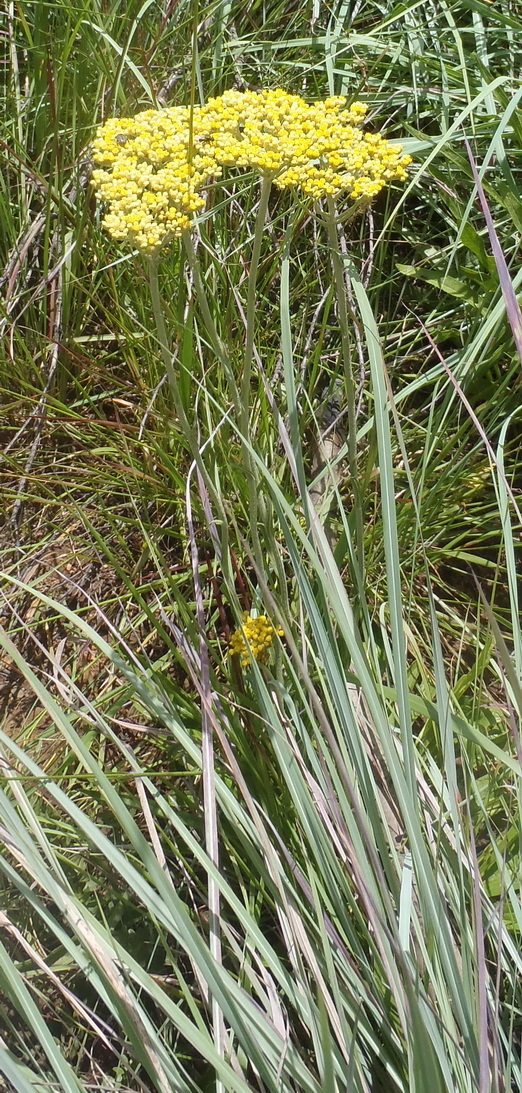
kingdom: Plantae
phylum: Tracheophyta
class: Magnoliopsida
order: Asterales
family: Asteraceae
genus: Helichrysum
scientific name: Helichrysum nudifolium
